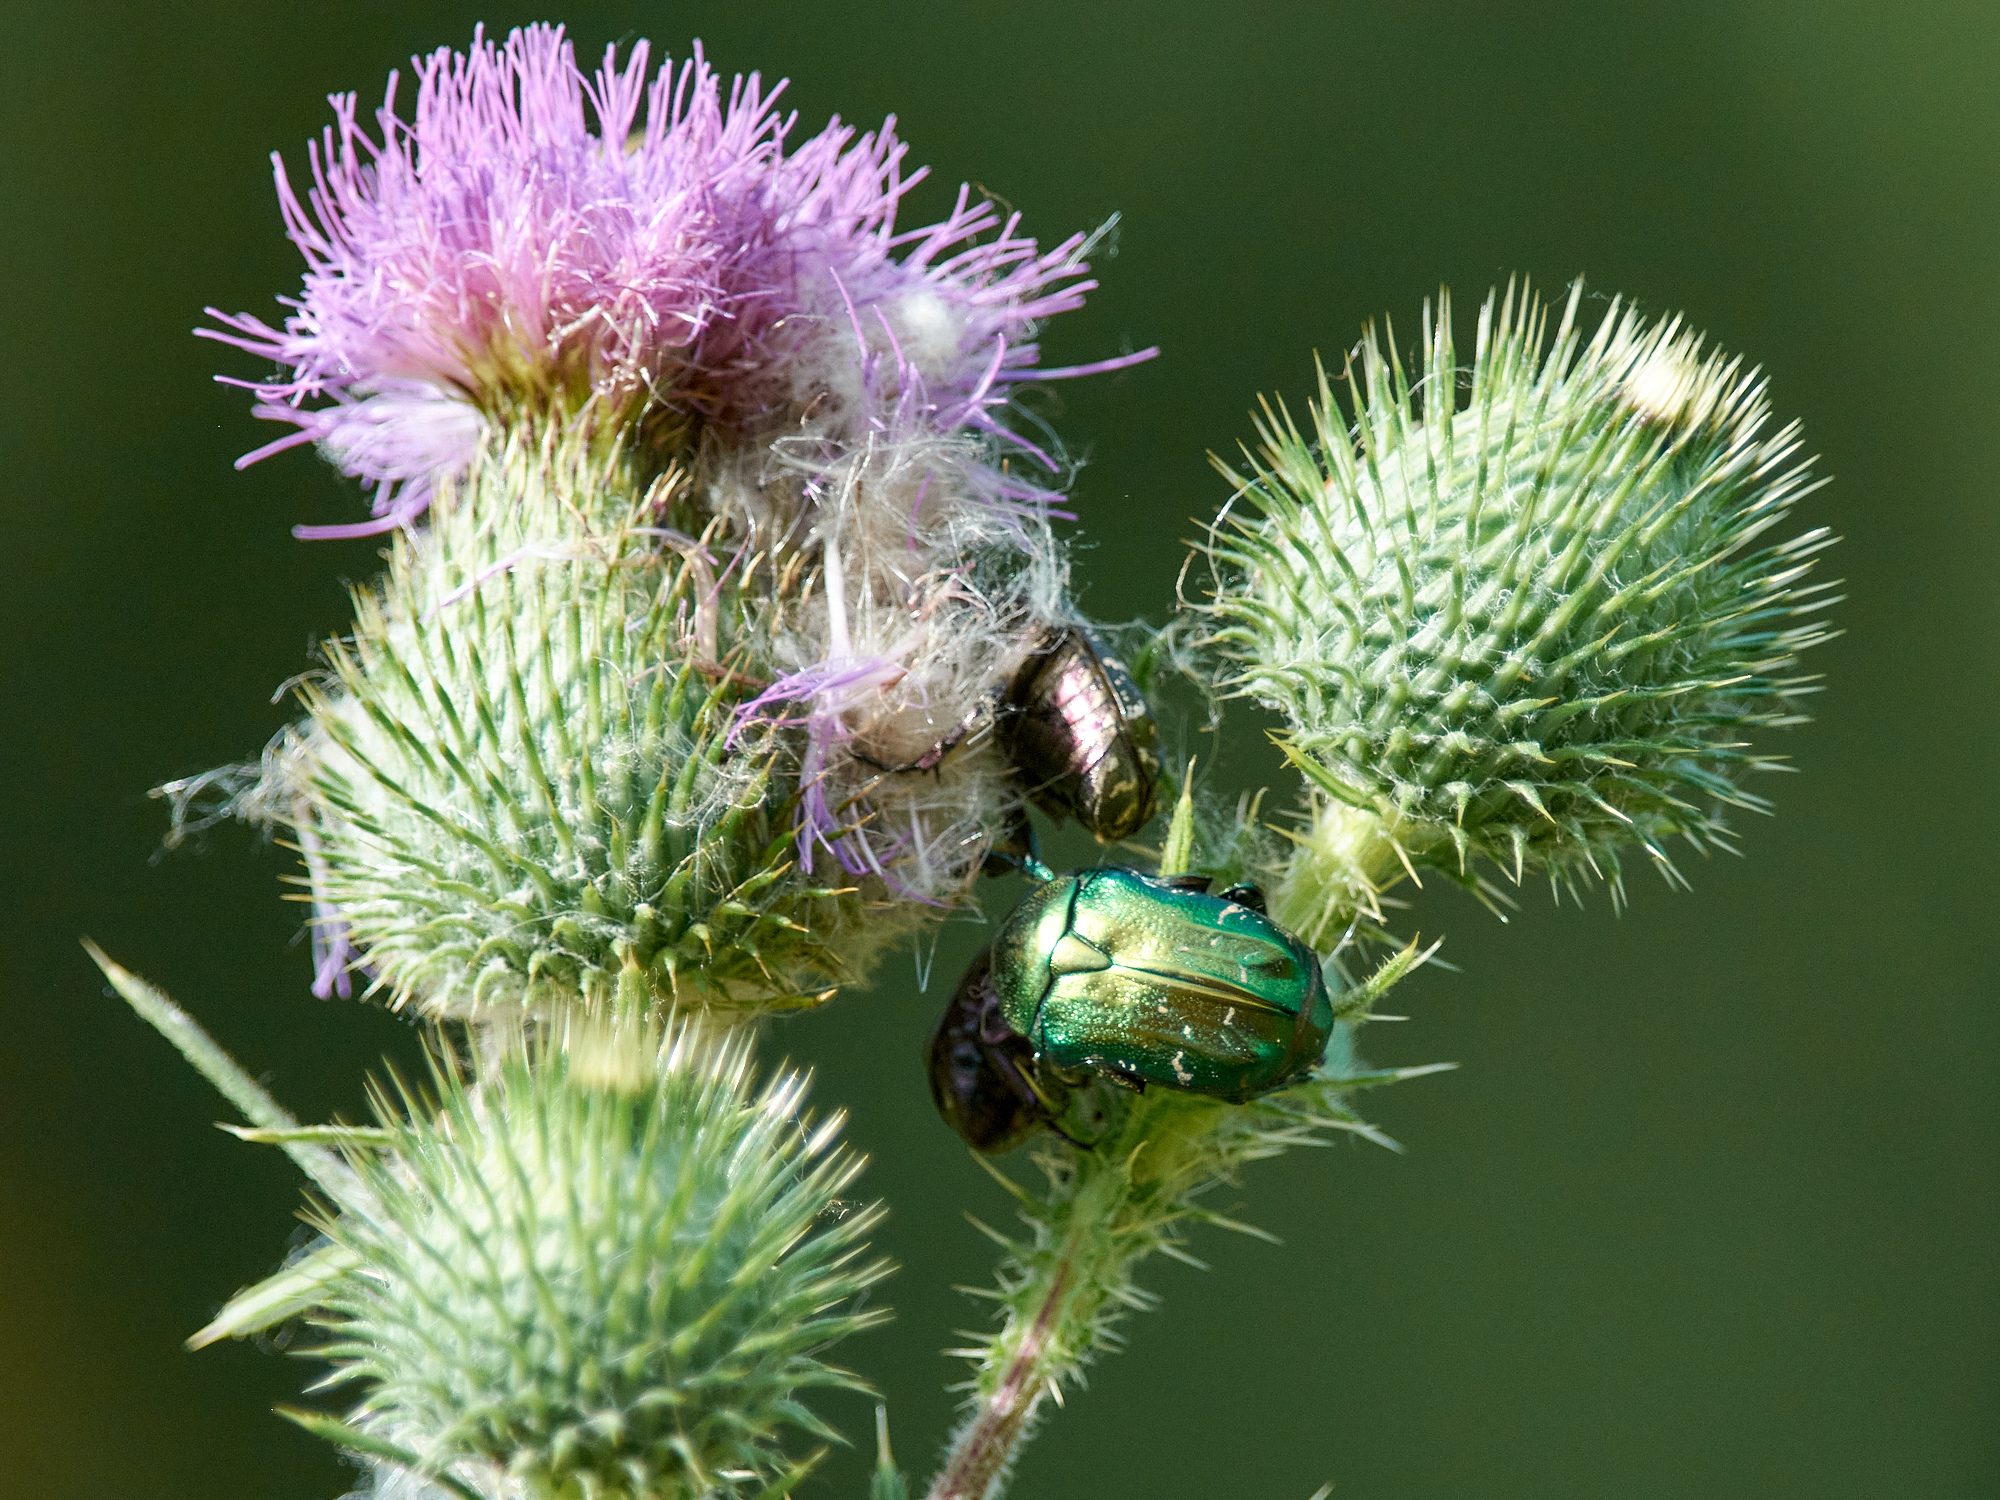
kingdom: Animalia
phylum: Arthropoda
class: Insecta
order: Coleoptera
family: Scarabaeidae
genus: Cetonia
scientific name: Cetonia aurata
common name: Rose chafer
